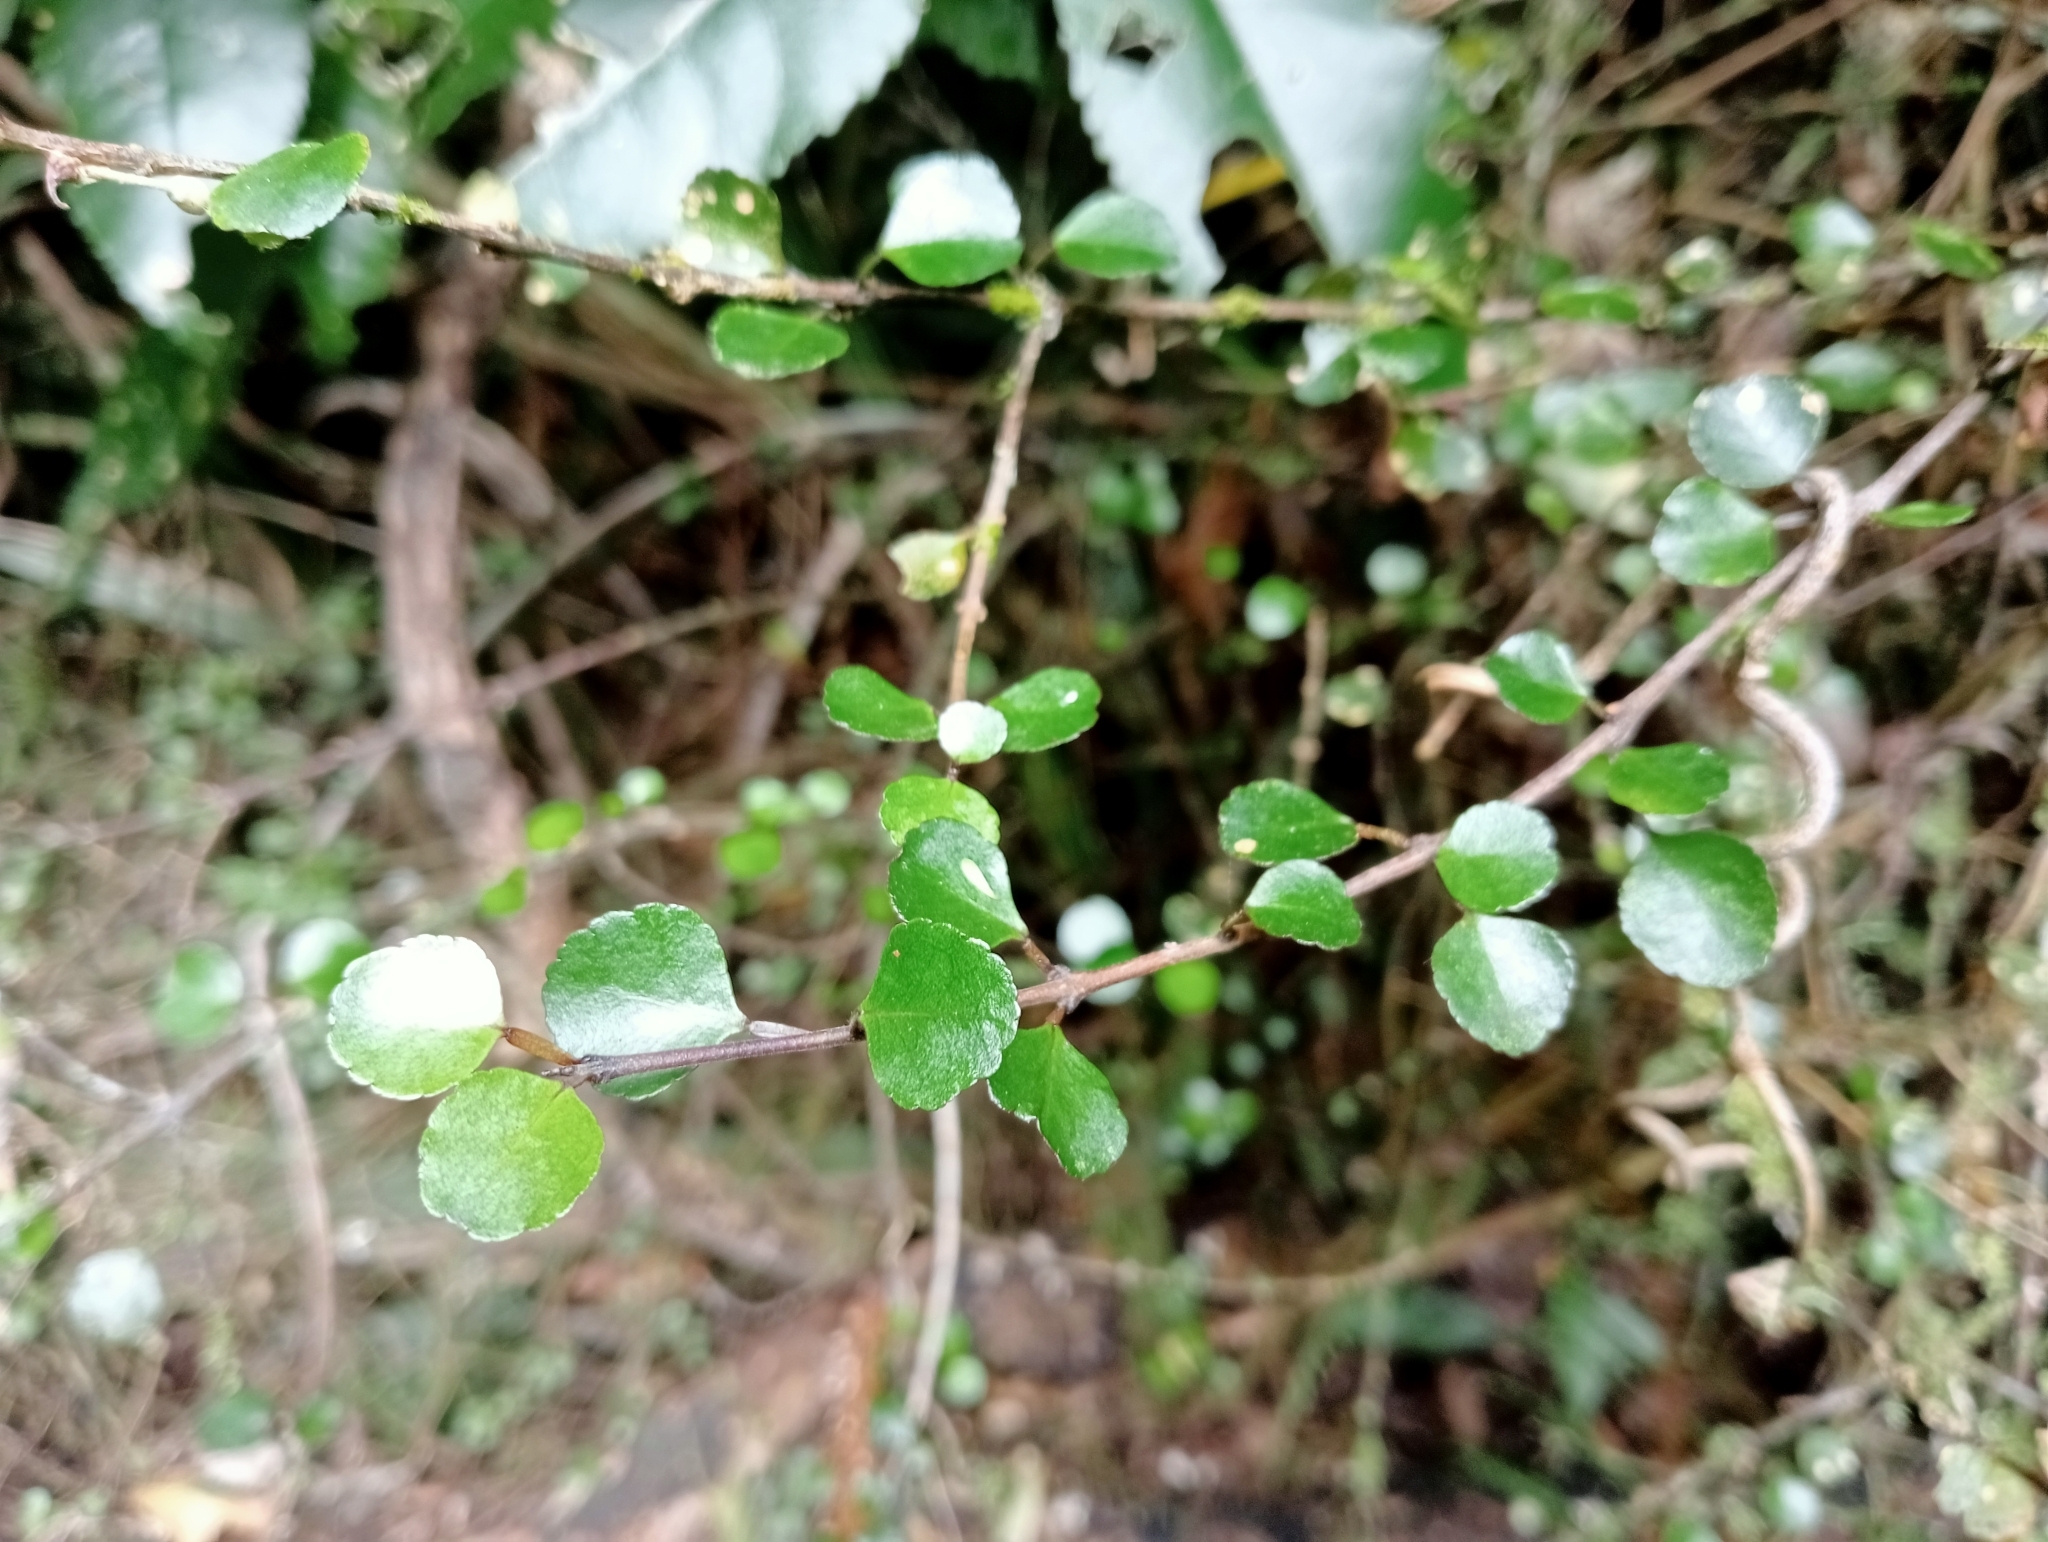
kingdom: Plantae
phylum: Tracheophyta
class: Magnoliopsida
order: Sapindales
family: Rutaceae
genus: Melicope
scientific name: Melicope simplex
